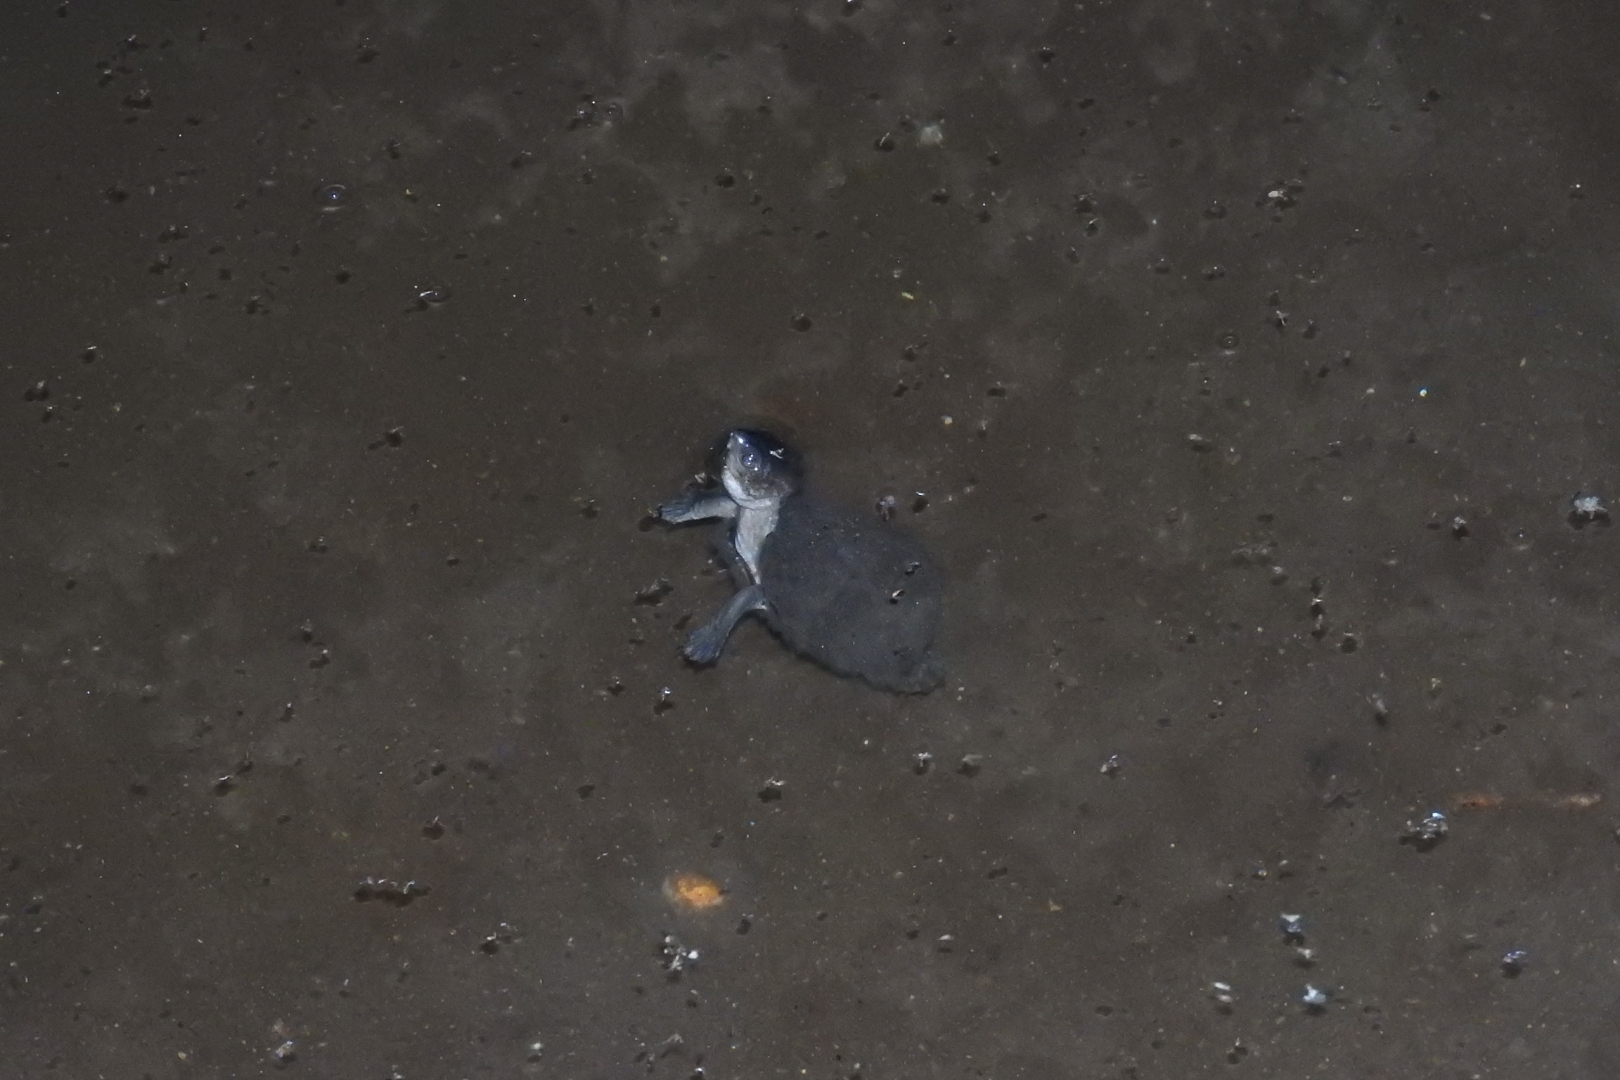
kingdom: Animalia
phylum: Chordata
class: Testudines
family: Kinosternidae
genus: Kinosternon
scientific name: Kinosternon scorpioides
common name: Scorpion mud turtle
